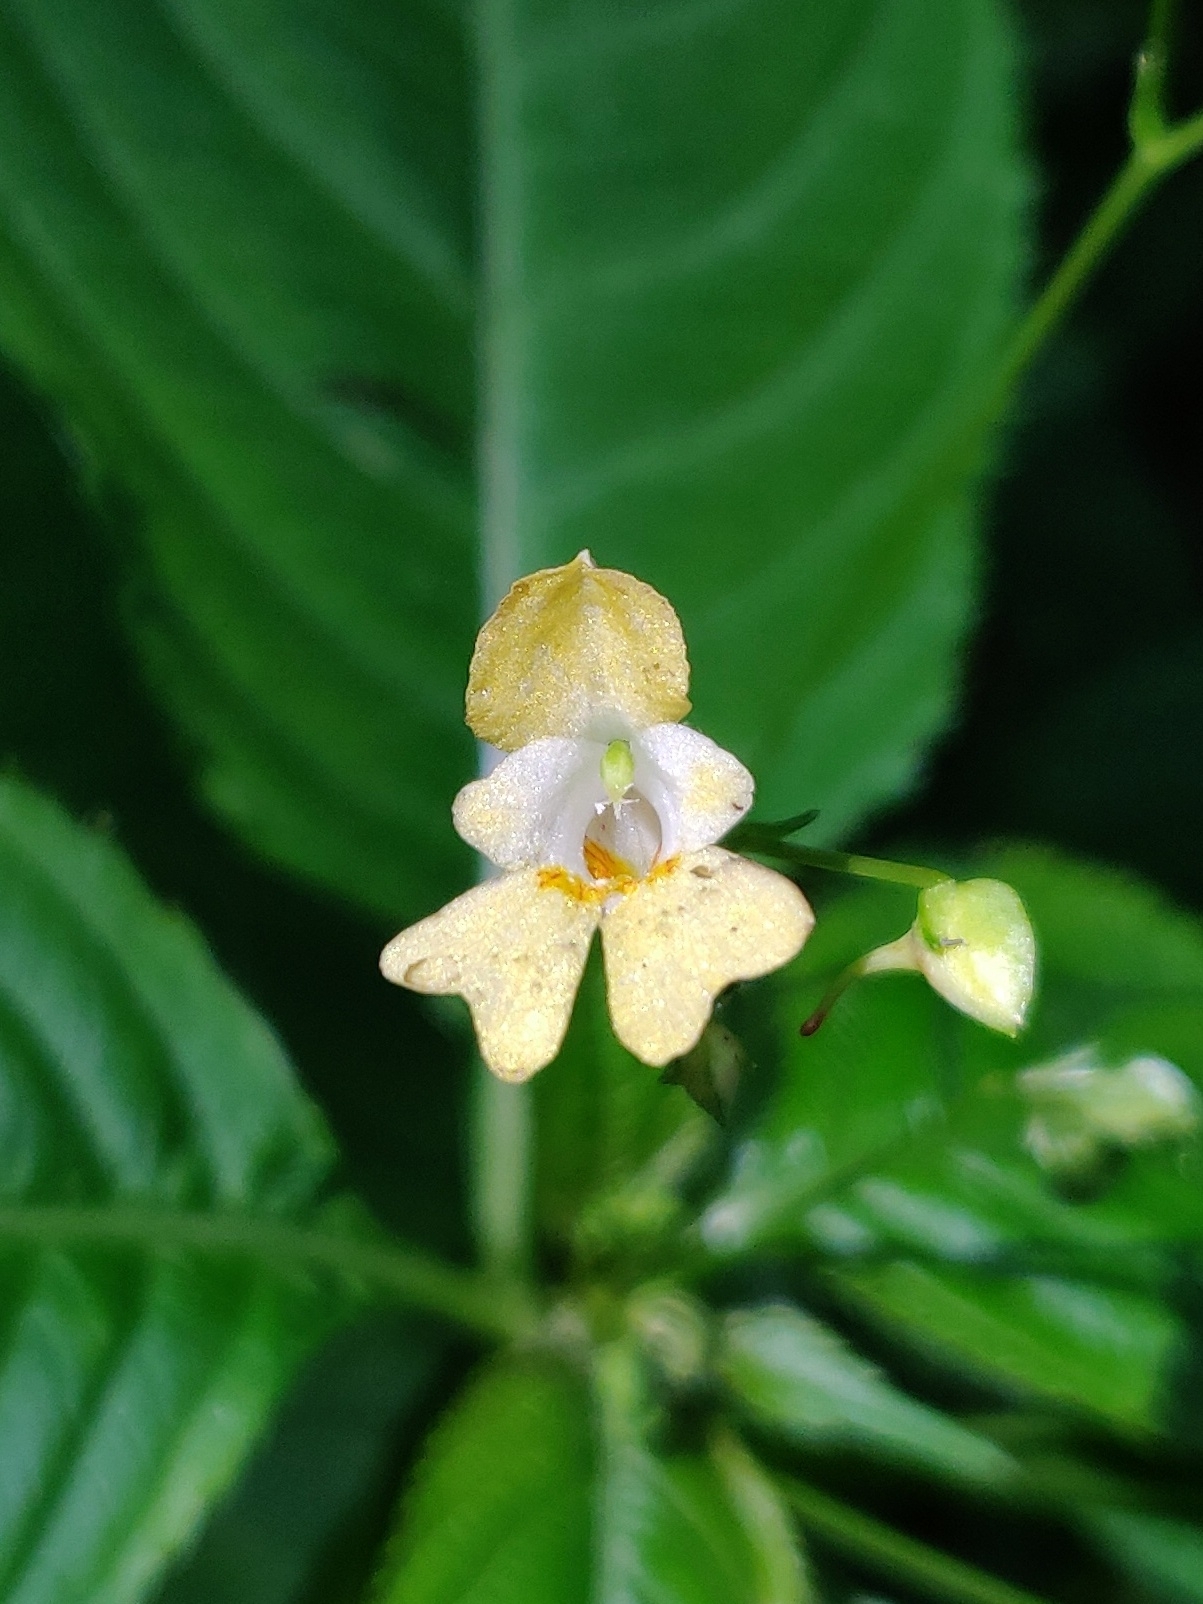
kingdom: Plantae
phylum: Tracheophyta
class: Magnoliopsida
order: Ericales
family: Balsaminaceae
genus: Impatiens
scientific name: Impatiens parviflora
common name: Small balsam
